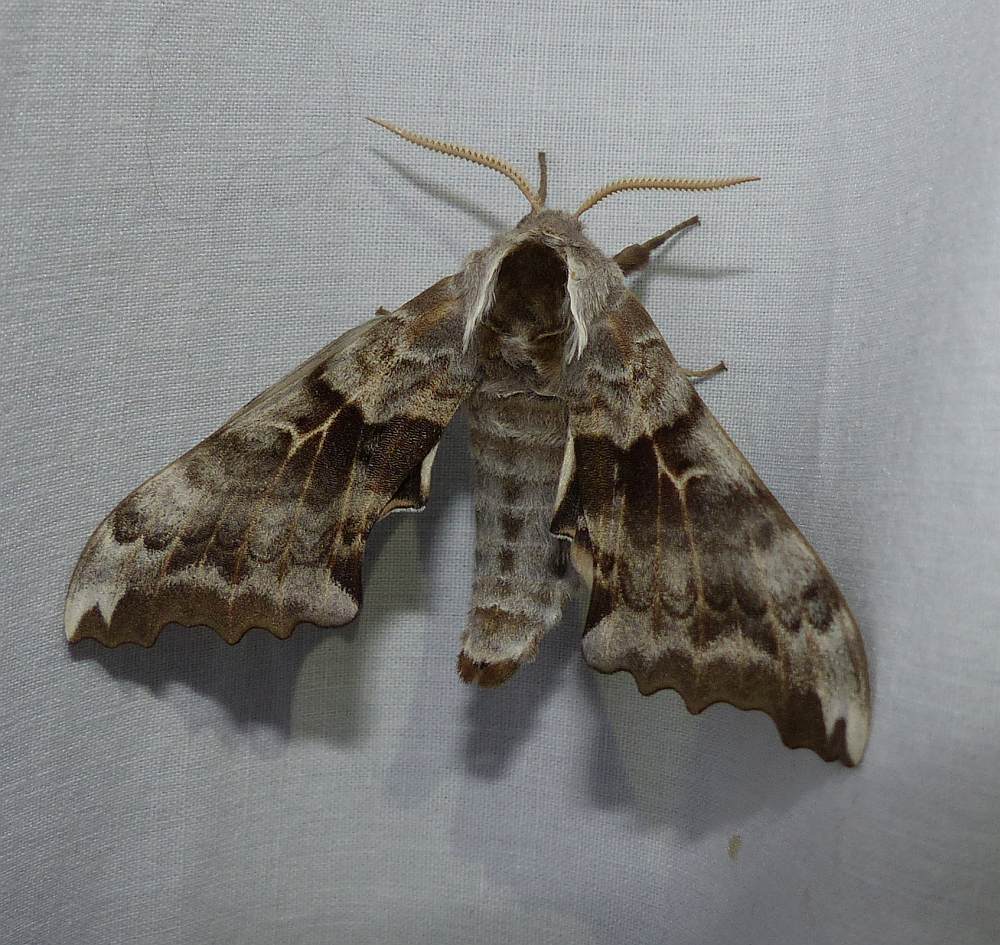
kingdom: Animalia
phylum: Arthropoda
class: Insecta
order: Lepidoptera
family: Sphingidae
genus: Smerinthus
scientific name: Smerinthus cerisyi
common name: Cerisy's sphinx moth
